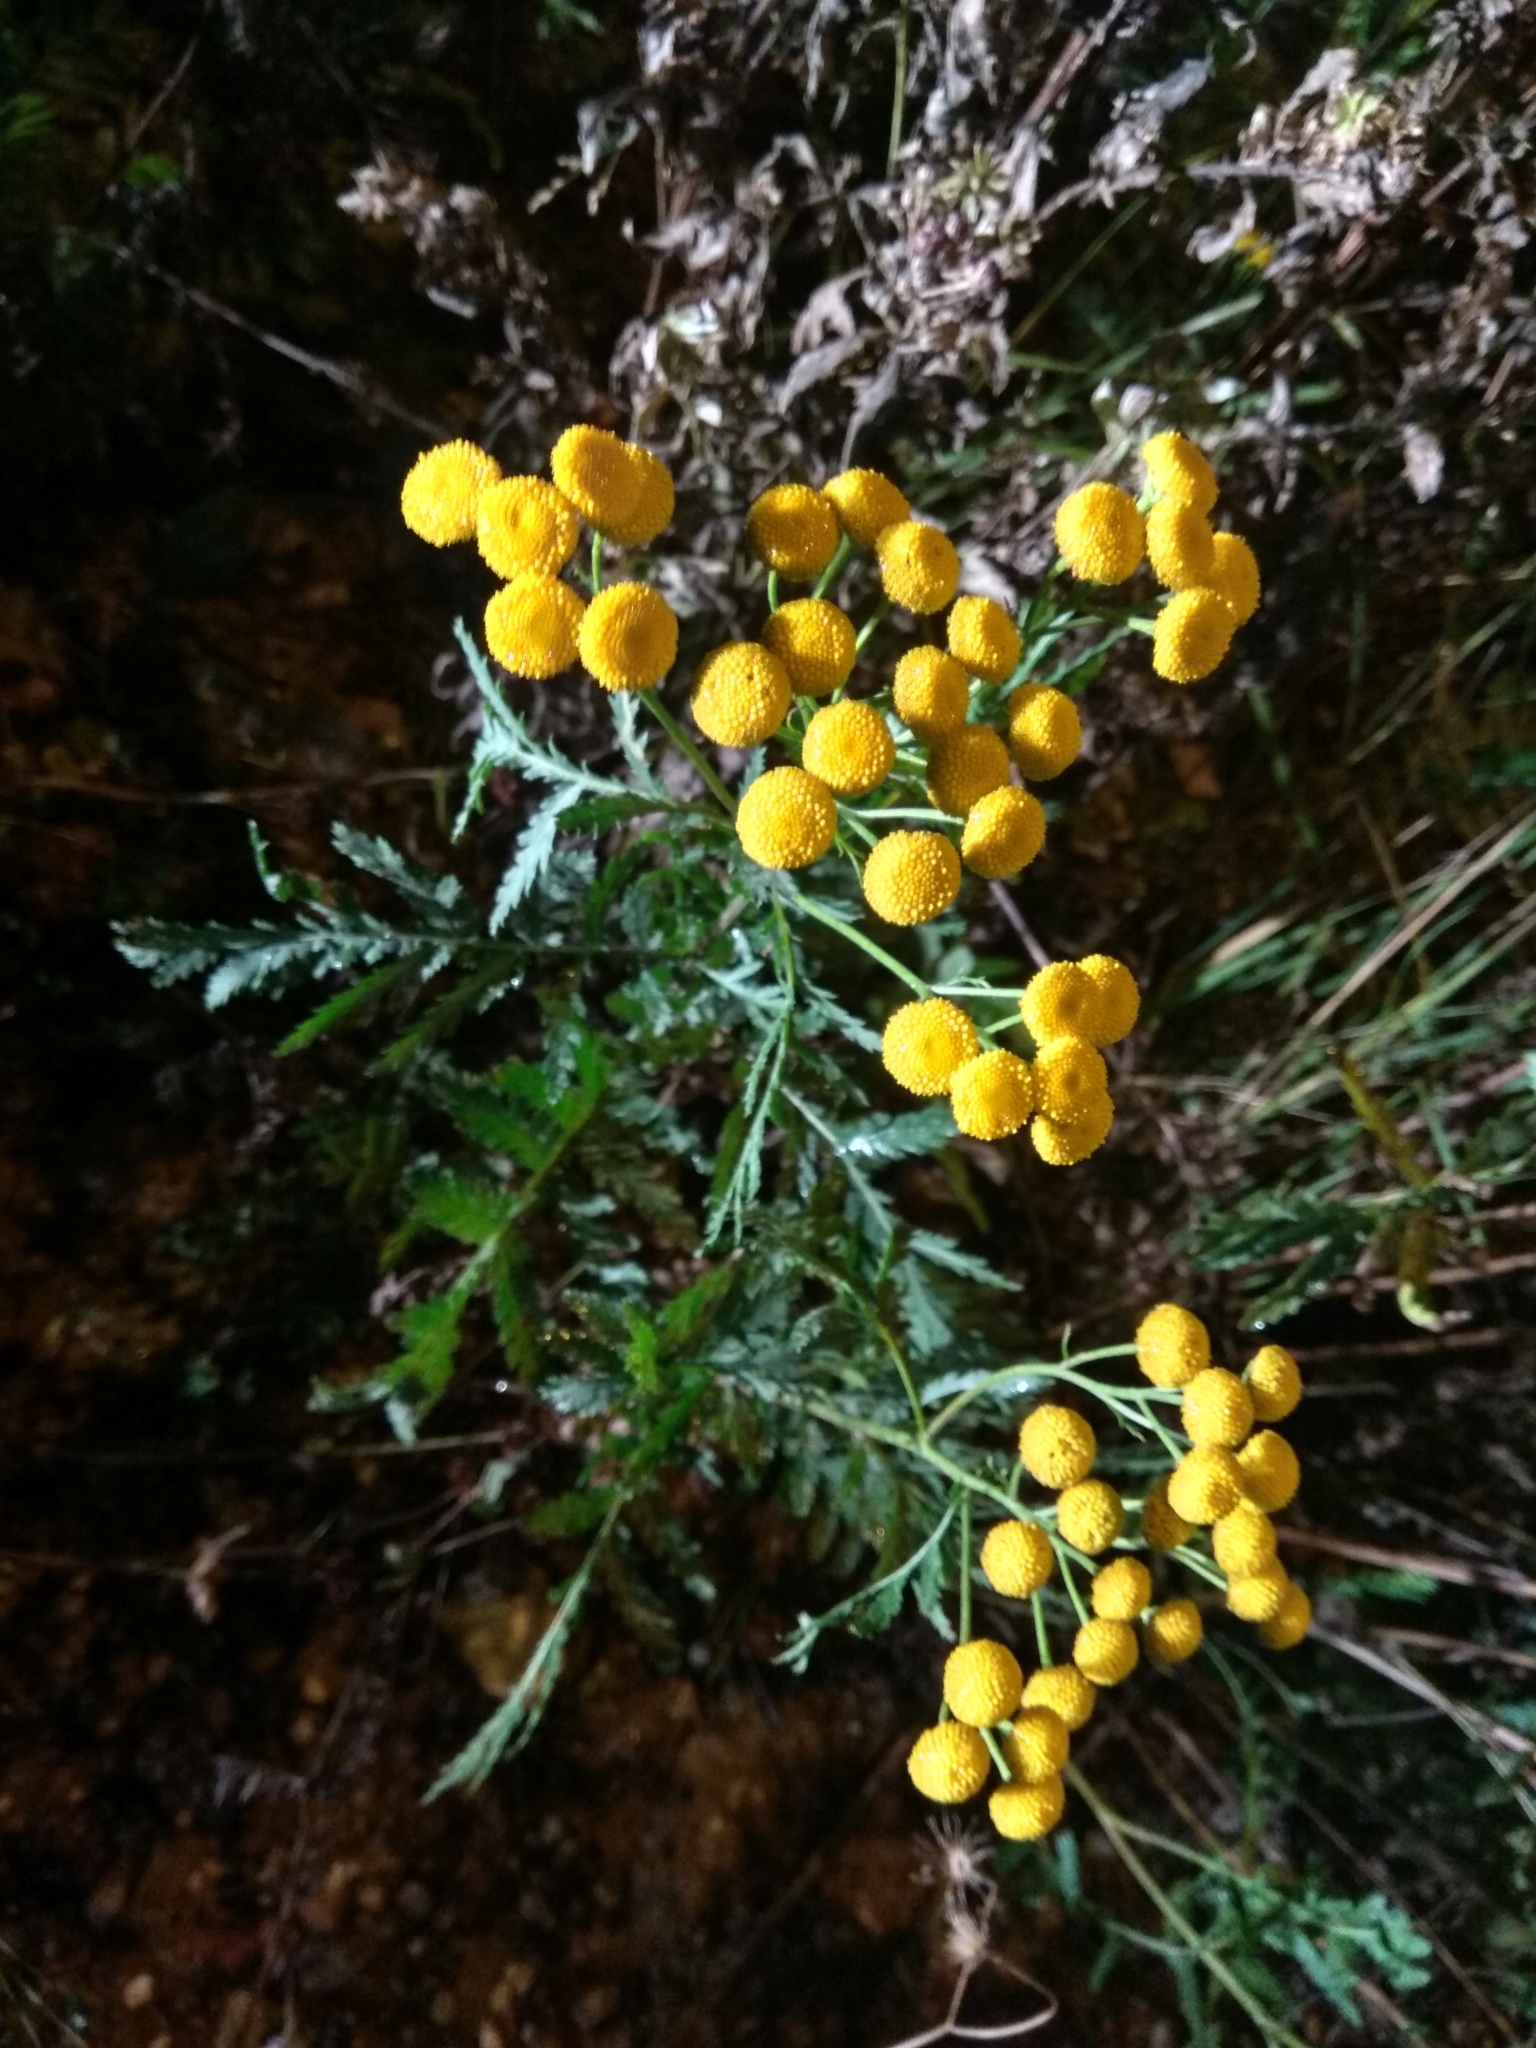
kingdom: Plantae
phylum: Tracheophyta
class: Magnoliopsida
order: Asterales
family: Asteraceae
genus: Tanacetum
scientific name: Tanacetum vulgare
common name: Common tansy
